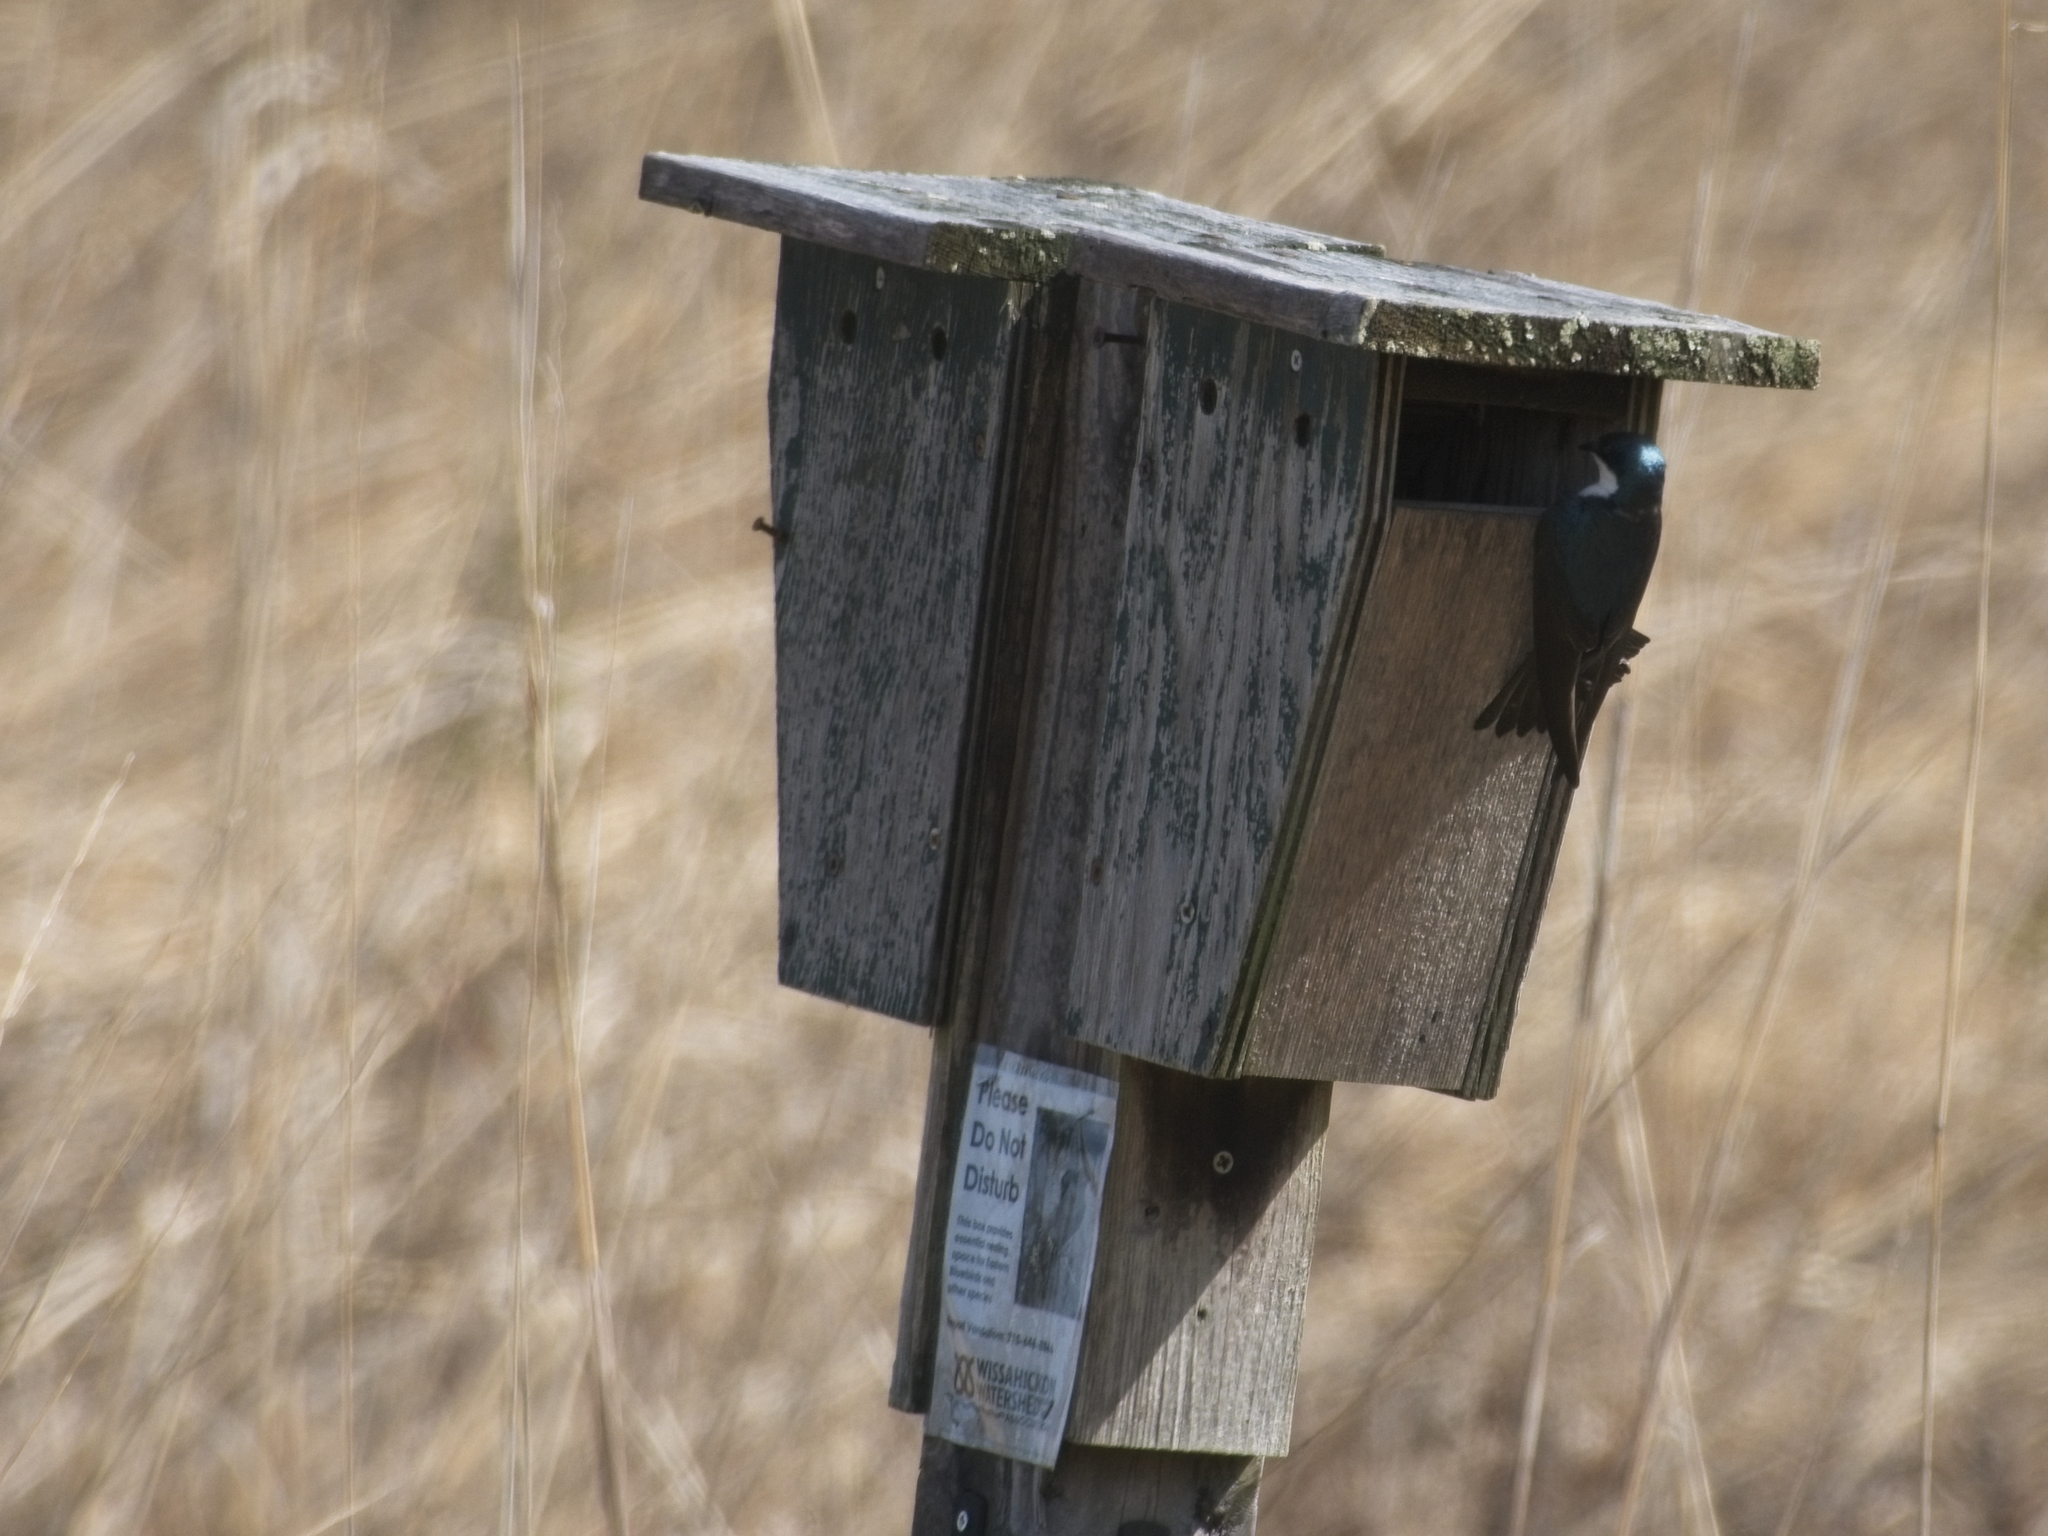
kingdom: Animalia
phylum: Chordata
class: Aves
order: Passeriformes
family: Hirundinidae
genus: Tachycineta
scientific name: Tachycineta bicolor
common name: Tree swallow
